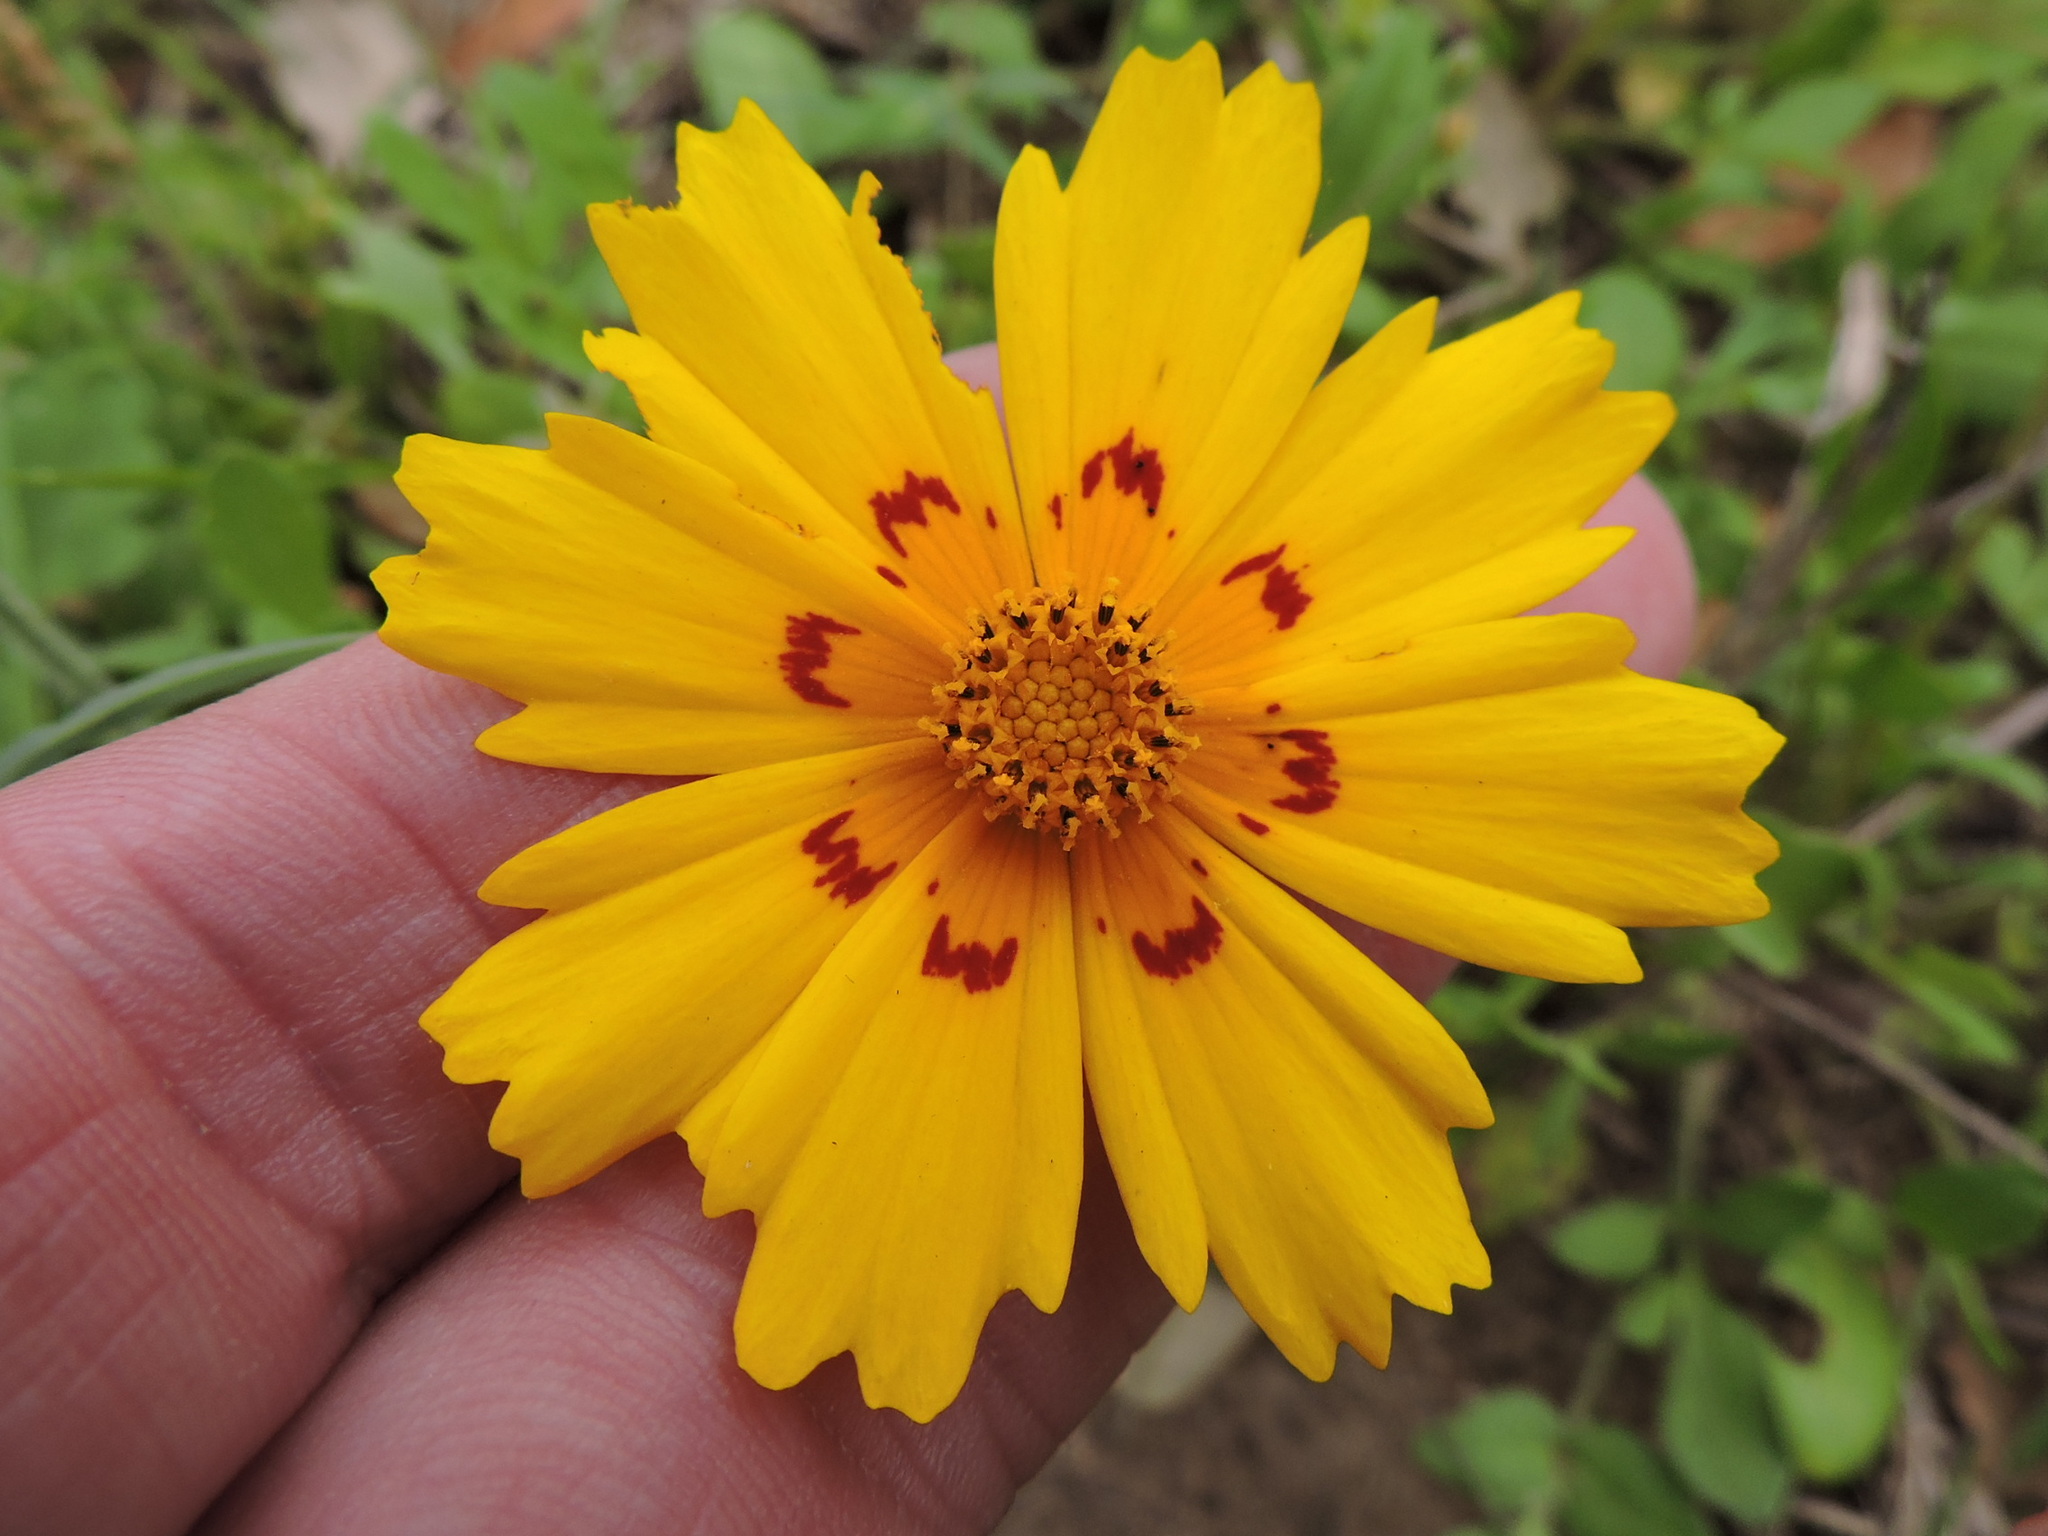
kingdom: Plantae
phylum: Tracheophyta
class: Magnoliopsida
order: Asterales
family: Asteraceae
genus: Coreopsis
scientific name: Coreopsis nuecensis
